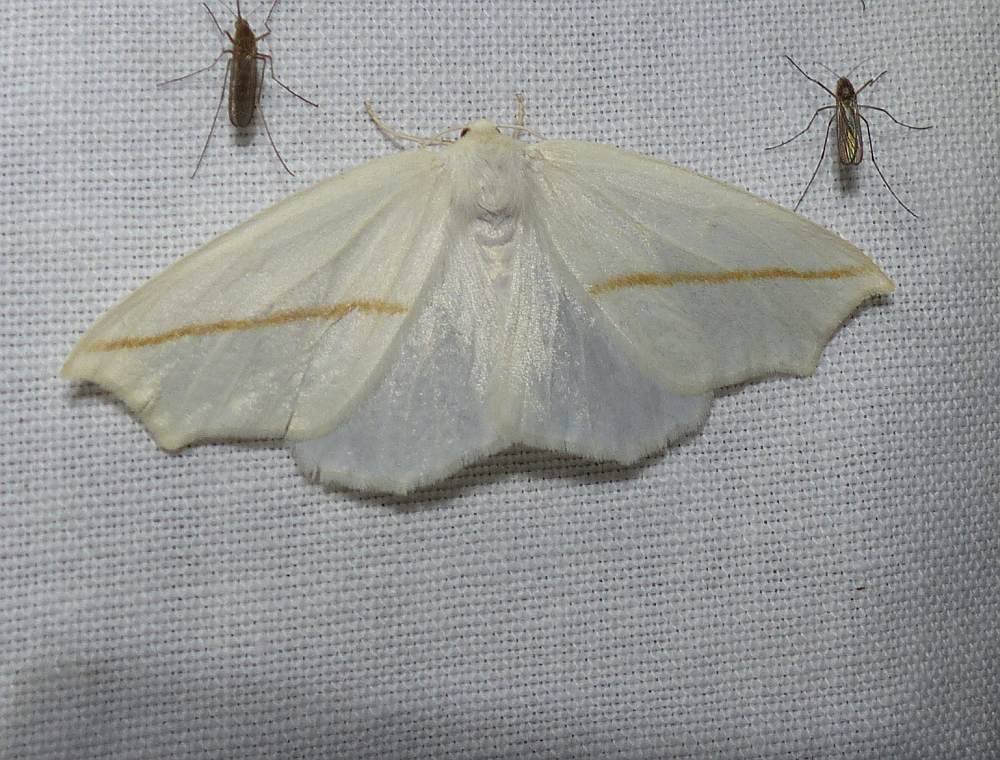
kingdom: Animalia
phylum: Arthropoda
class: Insecta
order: Lepidoptera
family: Geometridae
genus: Tetracis
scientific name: Tetracis cachexiata
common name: White slant-line
